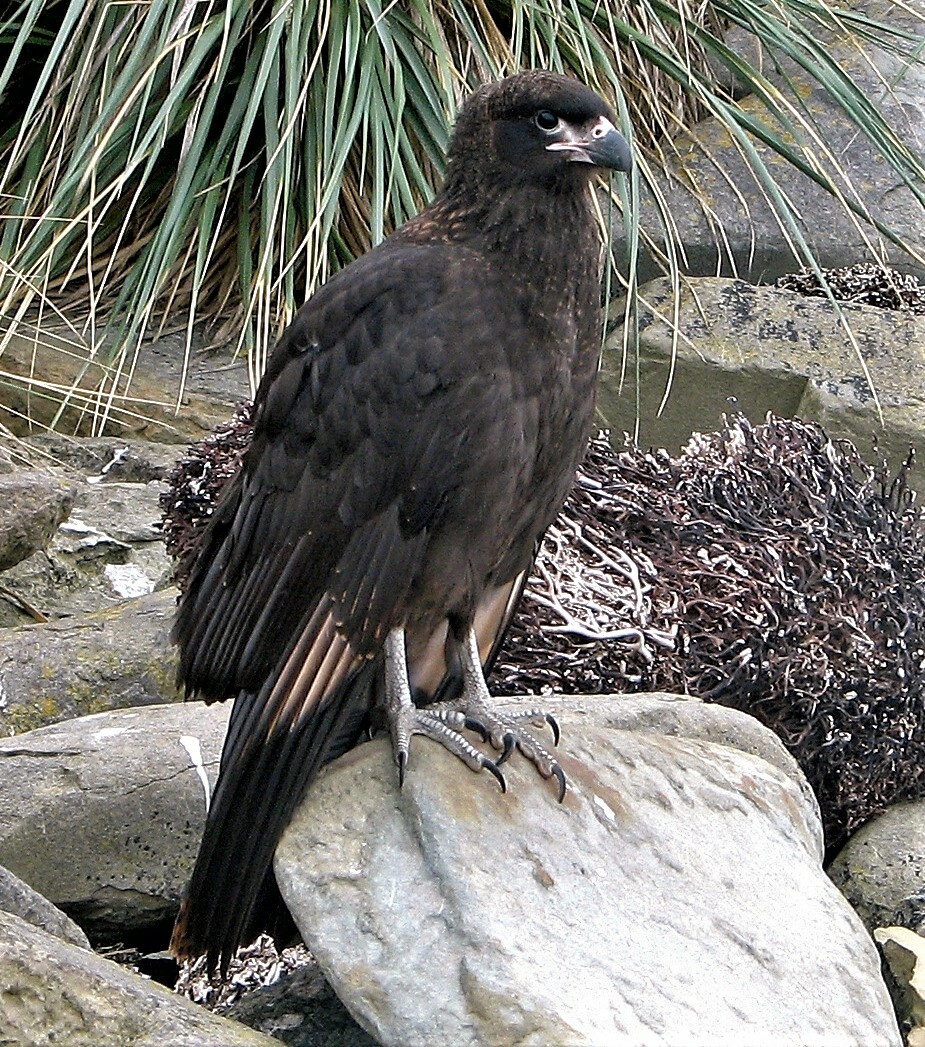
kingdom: Animalia
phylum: Chordata
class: Aves
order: Falconiformes
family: Falconidae
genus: Daptrius
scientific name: Daptrius
